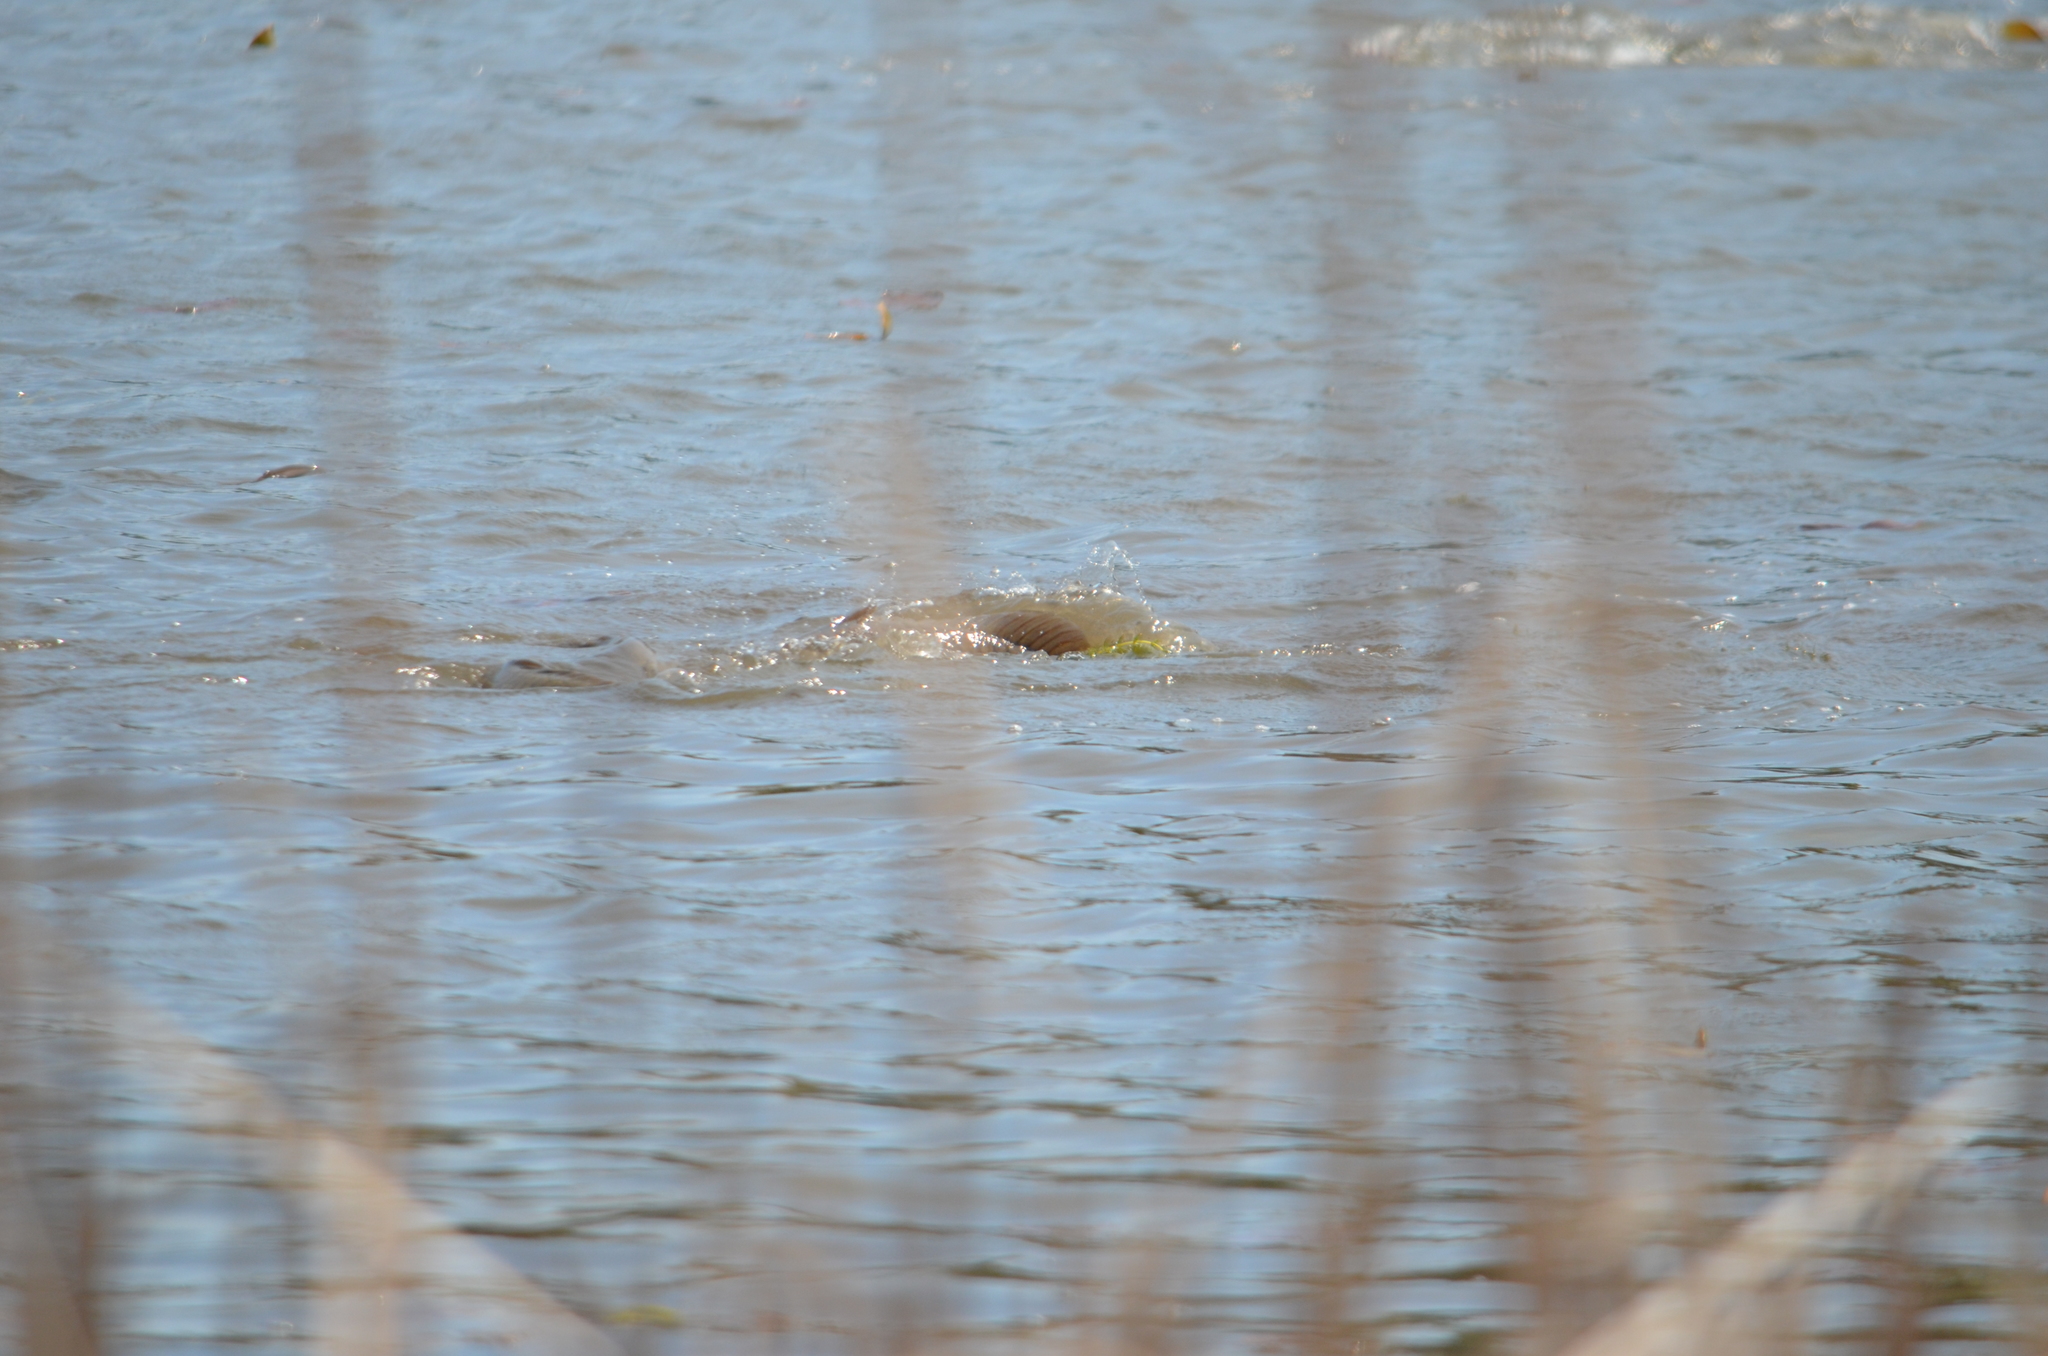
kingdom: Animalia
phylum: Chordata
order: Cypriniformes
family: Cyprinidae
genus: Cyprinus
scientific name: Cyprinus carpio
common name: Common carp
